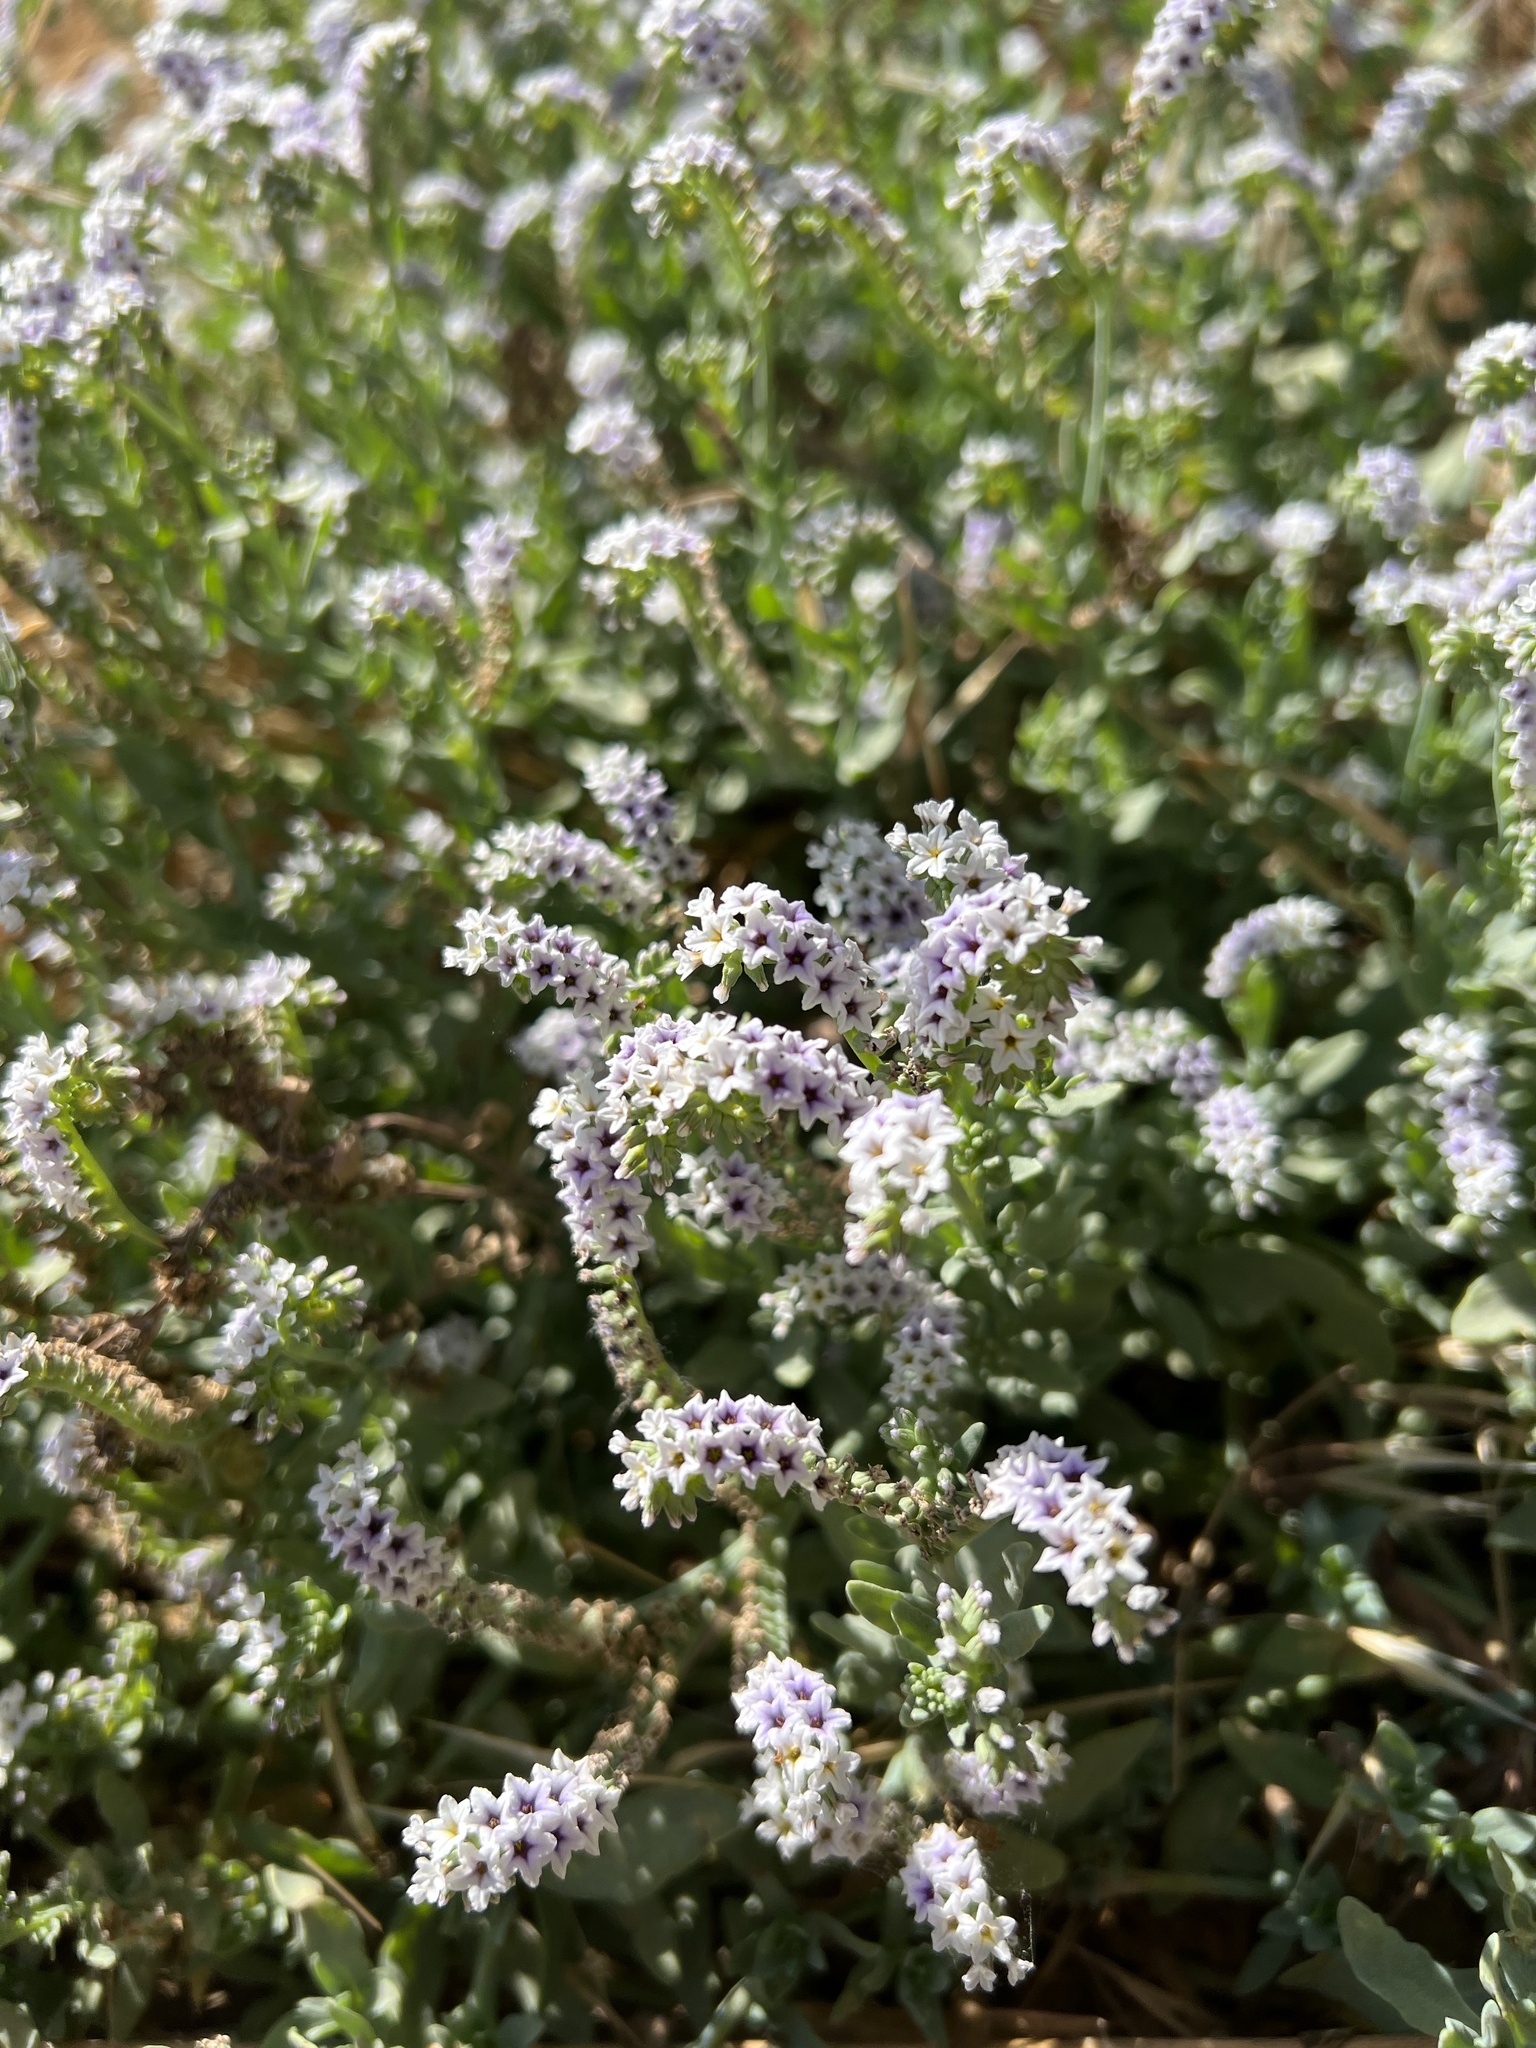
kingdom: Plantae
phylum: Tracheophyta
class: Magnoliopsida
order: Boraginales
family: Heliotropiaceae
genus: Heliotropium
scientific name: Heliotropium curassavicum
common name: Seaside heliotrope
